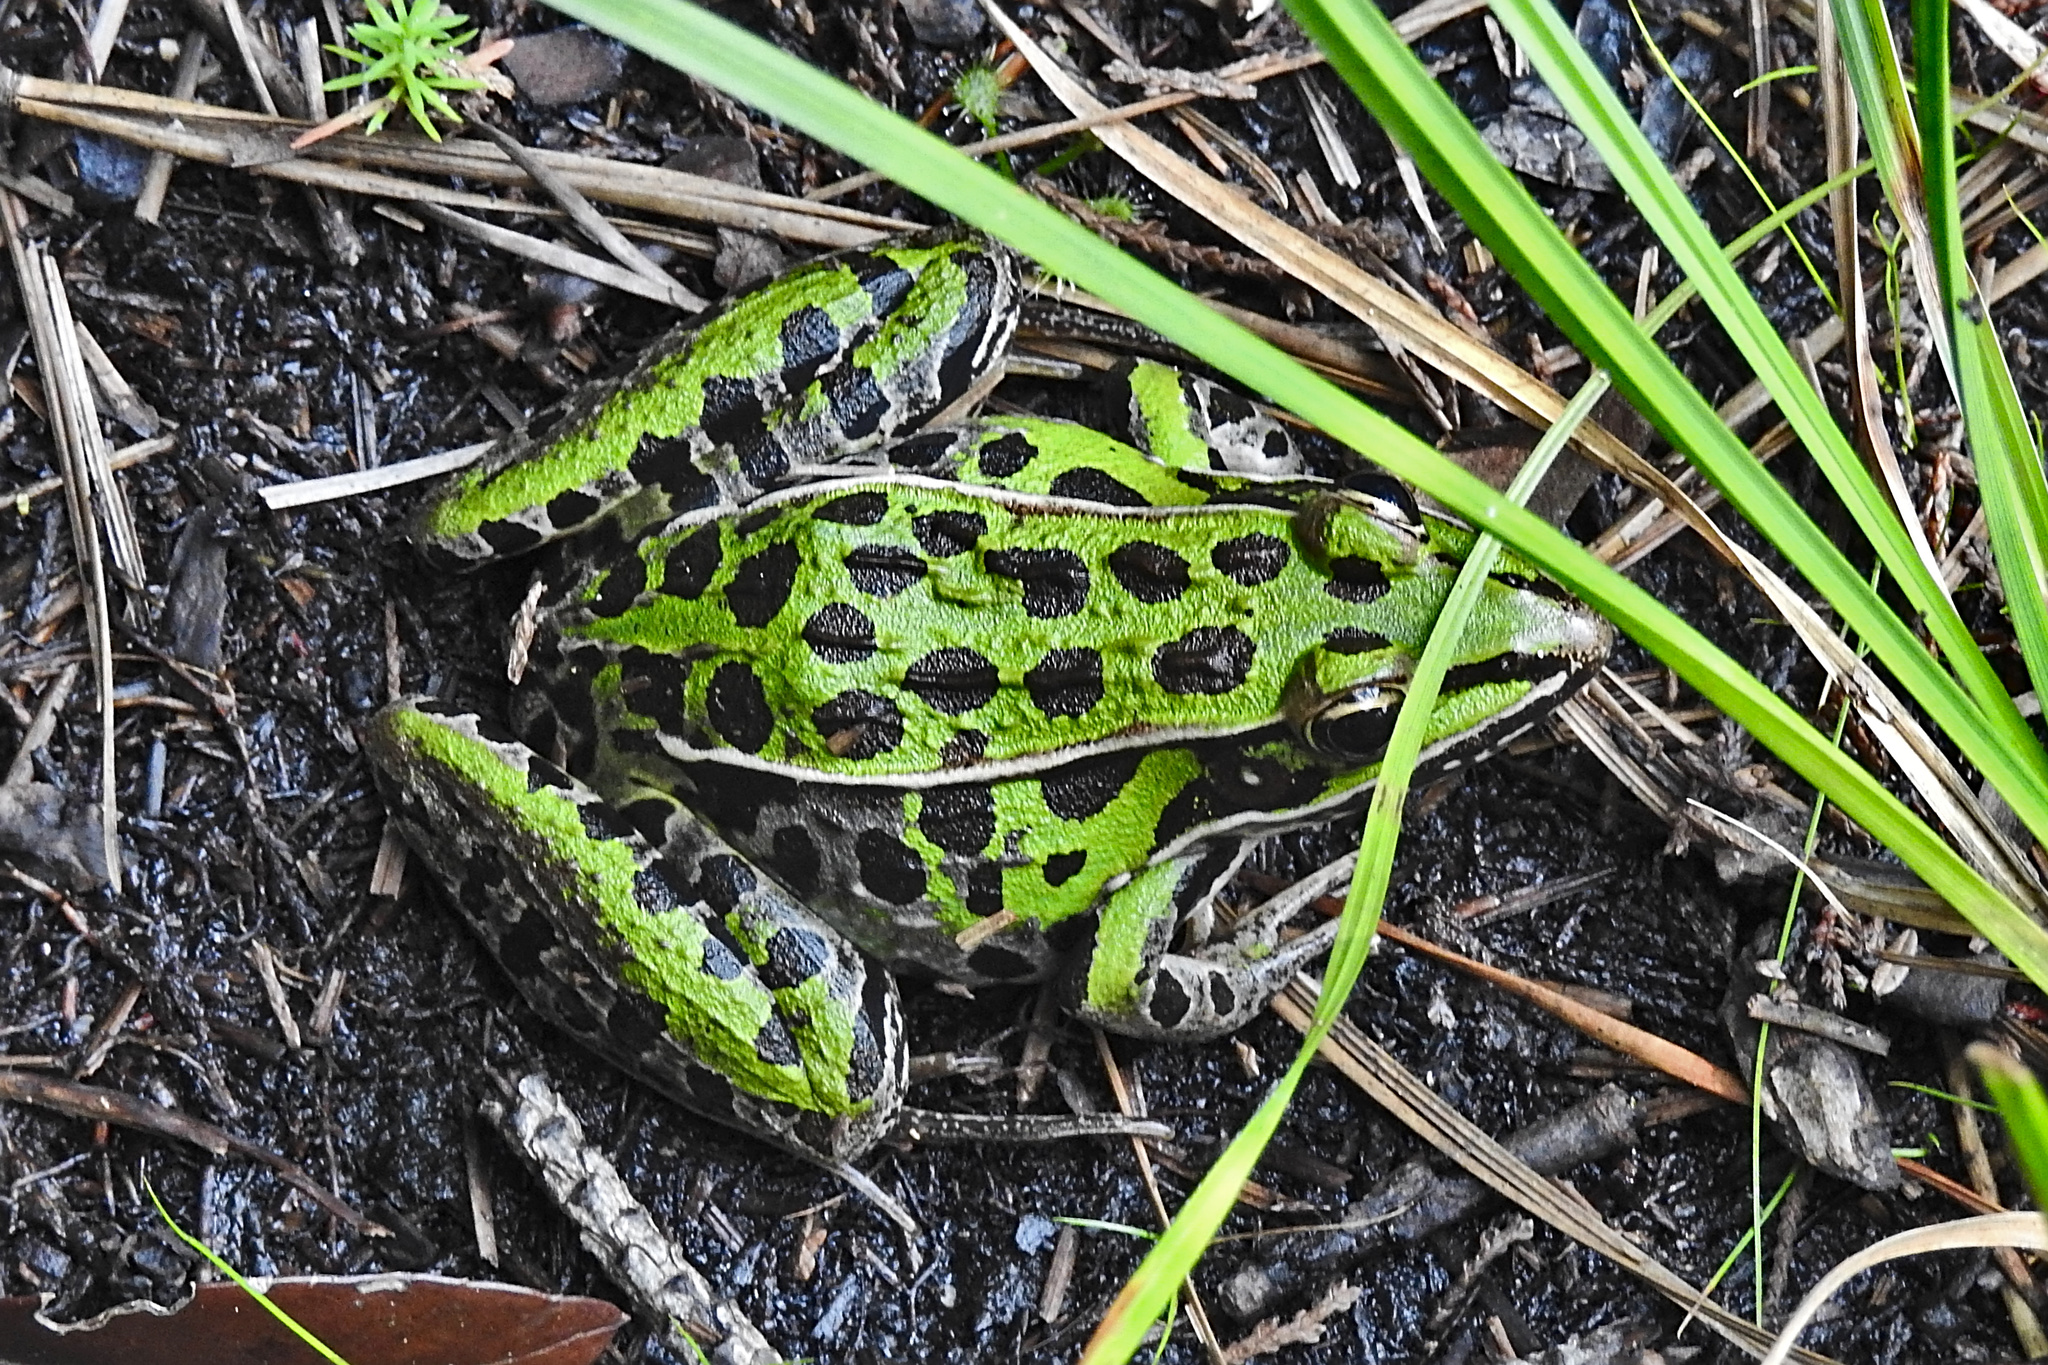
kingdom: Animalia
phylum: Chordata
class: Amphibia
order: Anura
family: Ranidae
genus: Lithobates
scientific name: Lithobates sphenocephalus
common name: Southern leopard frog
